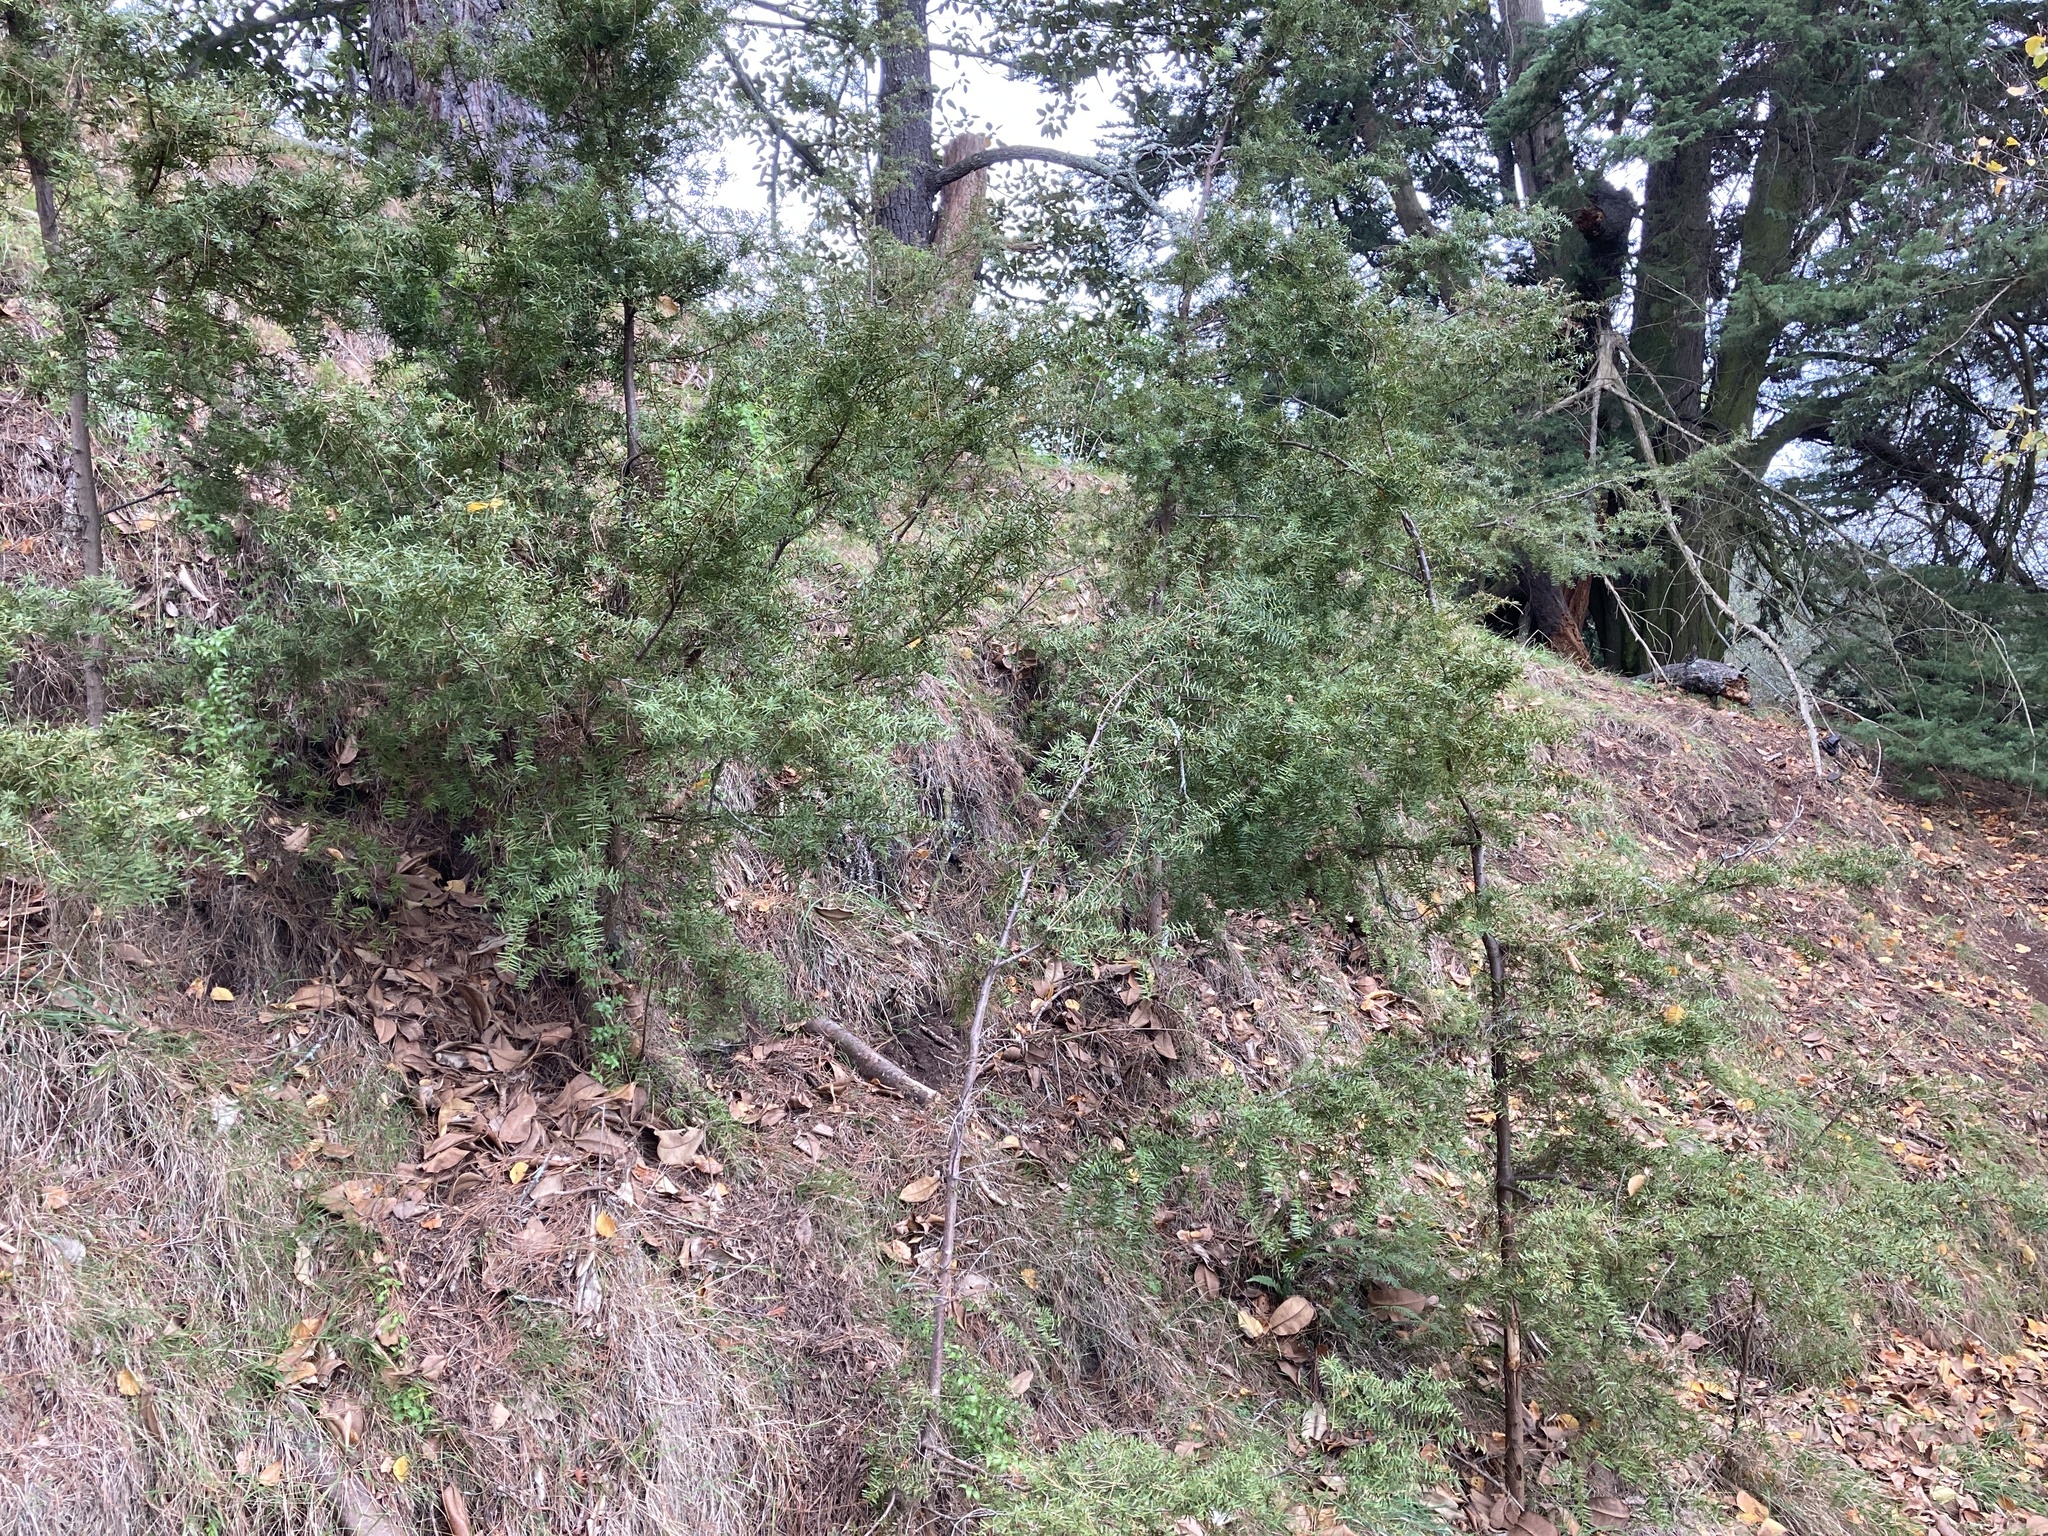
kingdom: Plantae
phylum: Tracheophyta
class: Pinopsida
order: Pinales
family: Podocarpaceae
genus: Podocarpus
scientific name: Podocarpus totara
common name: Totara
